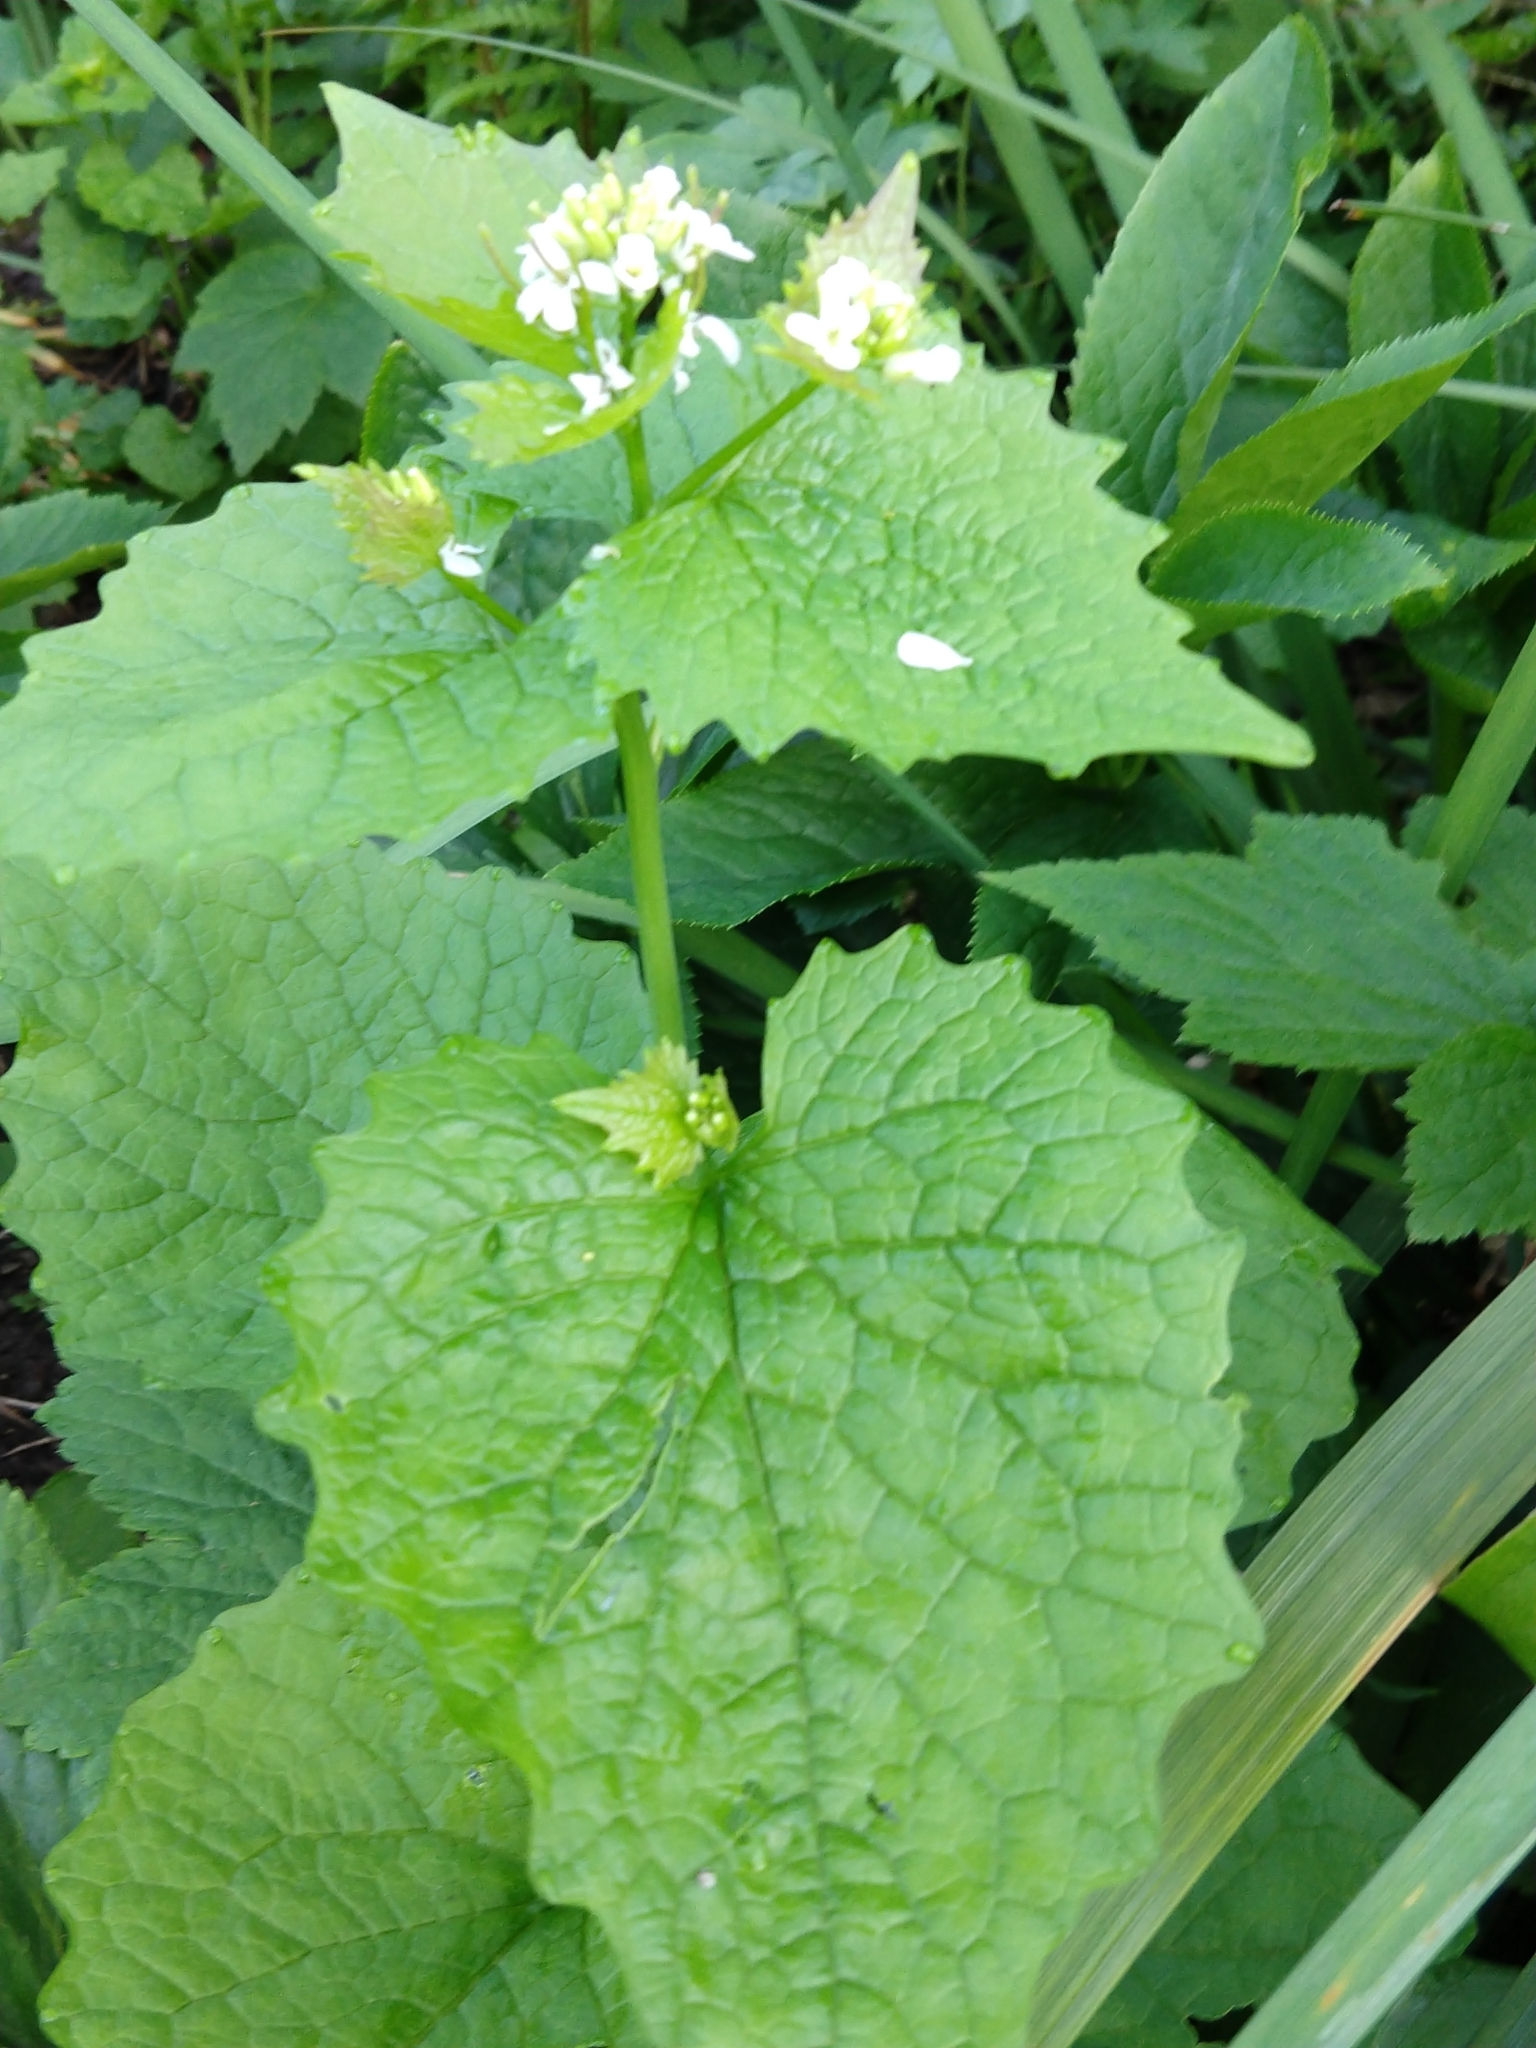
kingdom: Plantae
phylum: Tracheophyta
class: Magnoliopsida
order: Brassicales
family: Brassicaceae
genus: Alliaria
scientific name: Alliaria petiolata
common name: Garlic mustard
